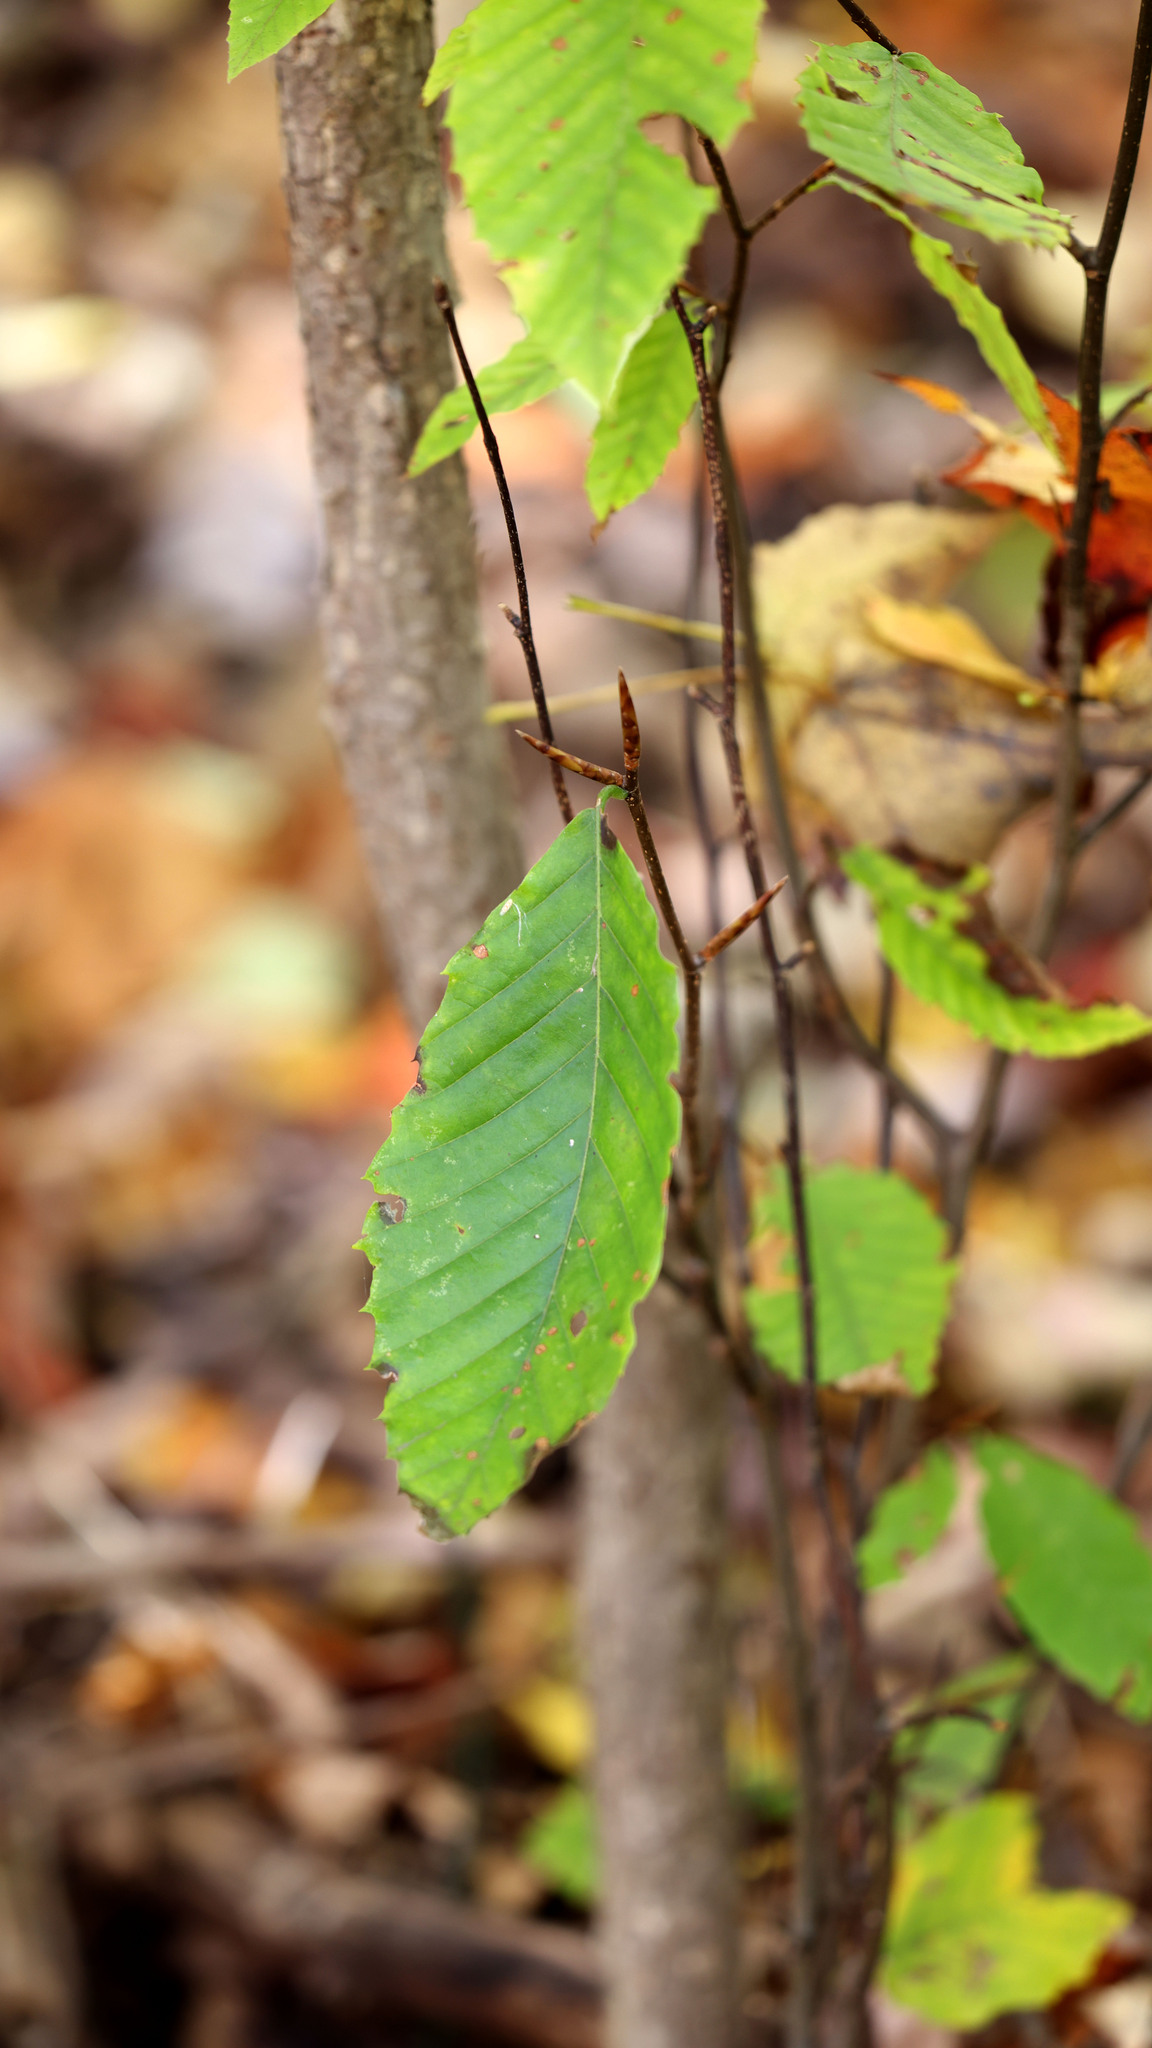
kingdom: Plantae
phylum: Tracheophyta
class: Magnoliopsida
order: Fagales
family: Fagaceae
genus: Fagus
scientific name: Fagus grandifolia
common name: American beech
